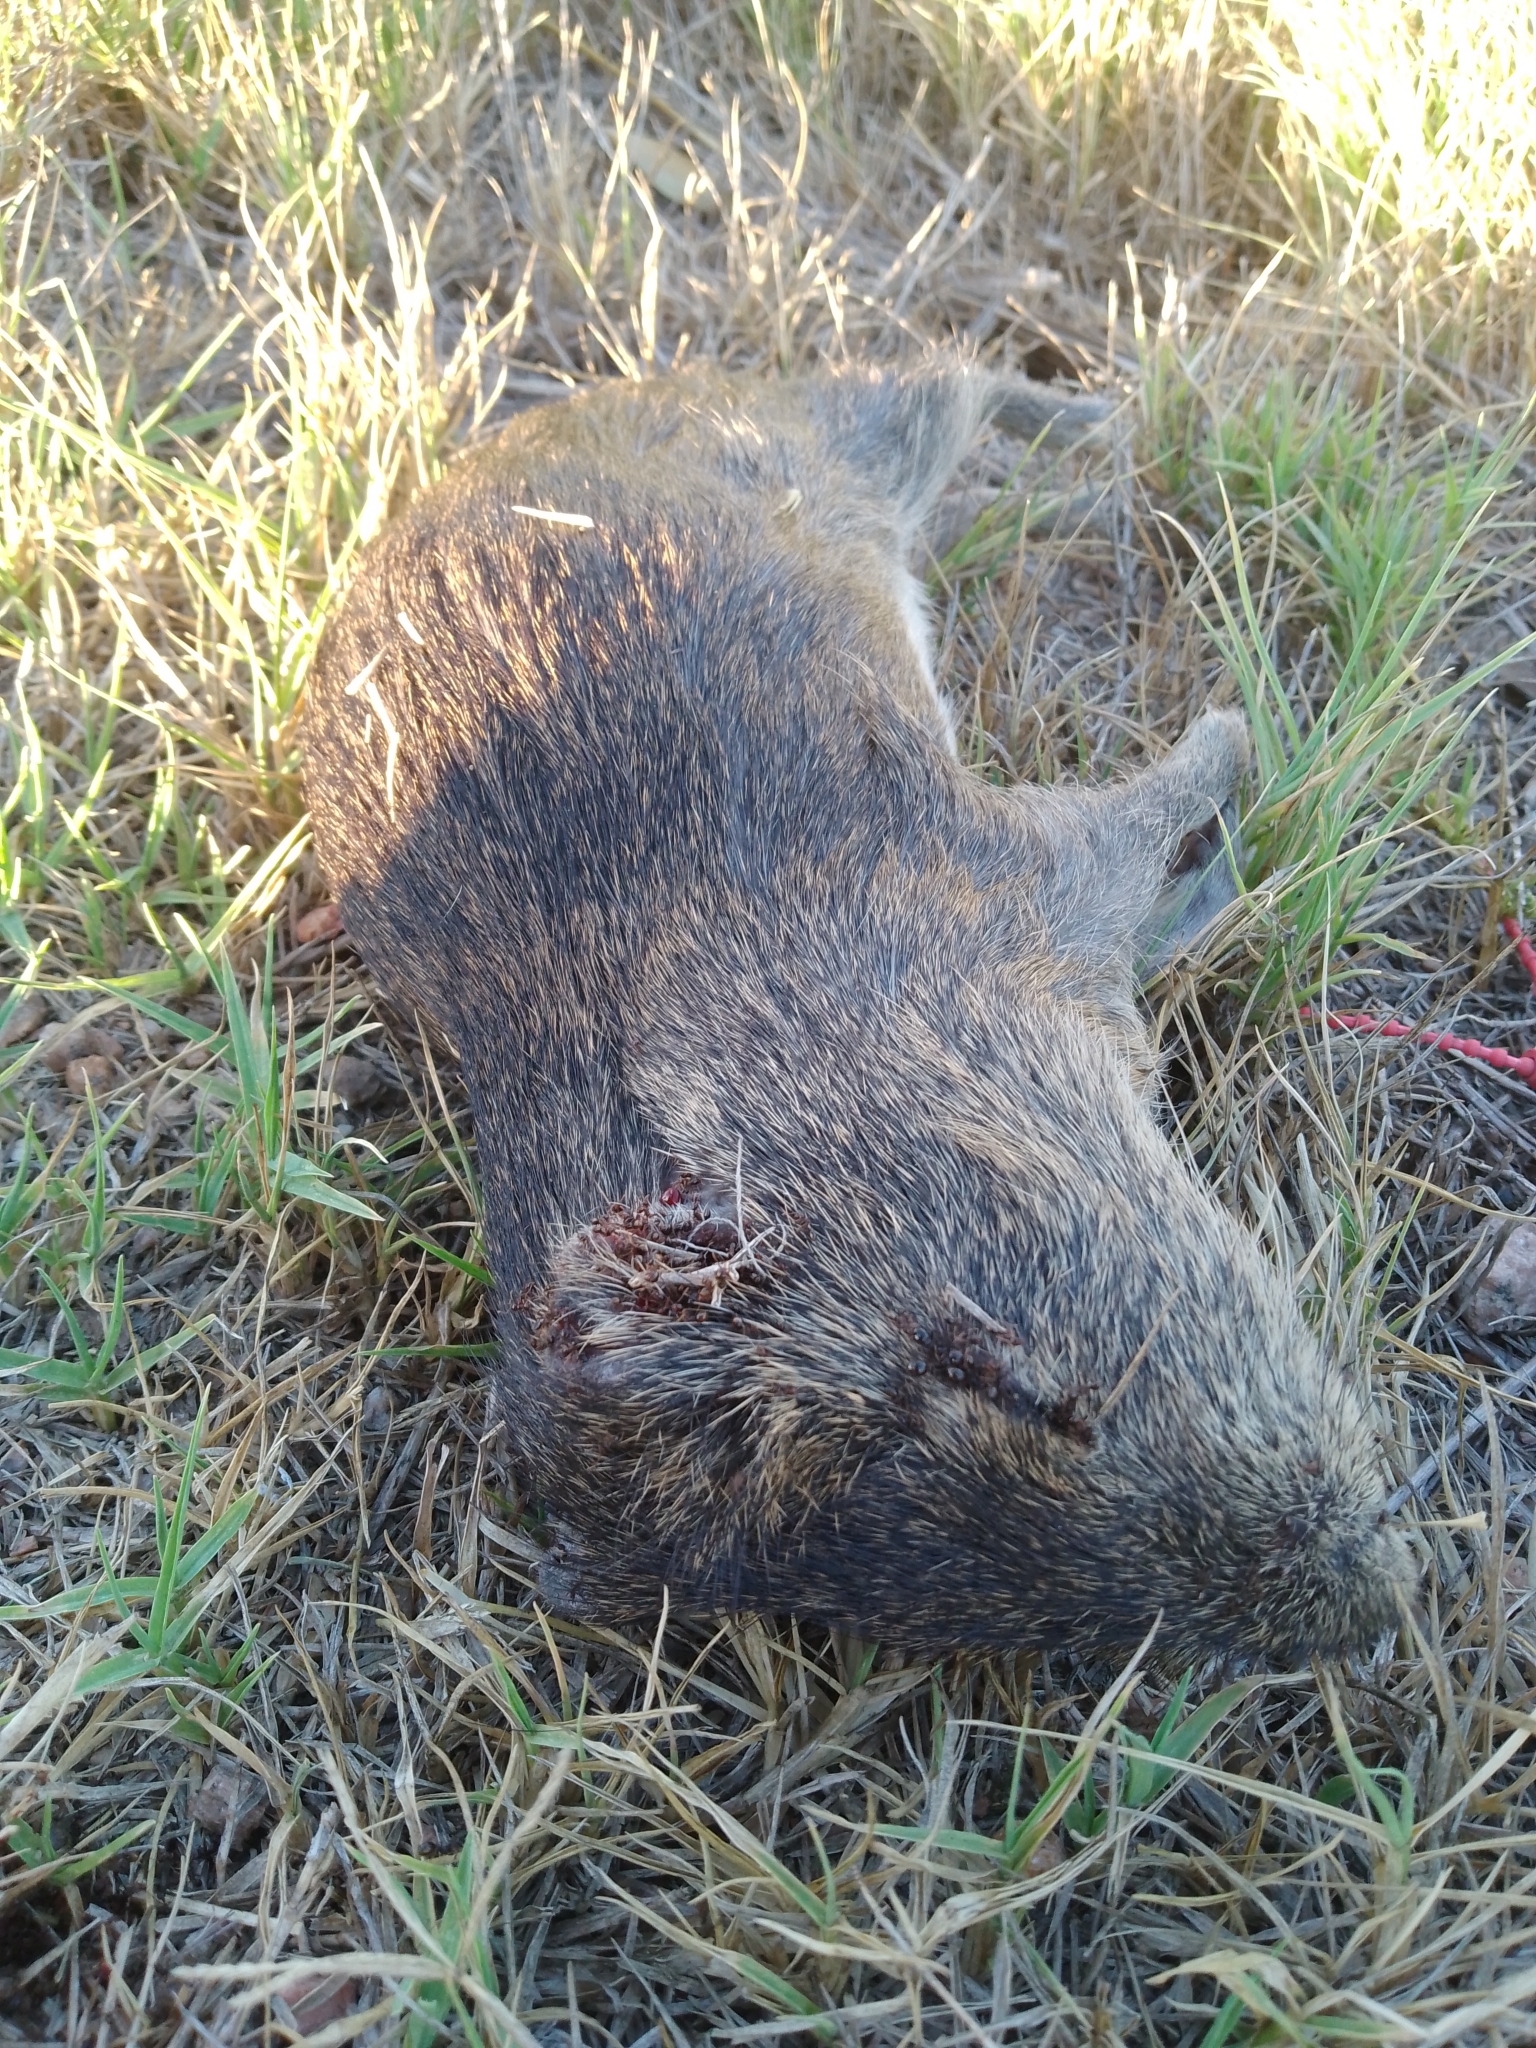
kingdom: Animalia
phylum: Chordata
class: Mammalia
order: Rodentia
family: Caviidae
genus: Cavia
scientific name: Cavia aperea
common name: Brazilian guinea pig
